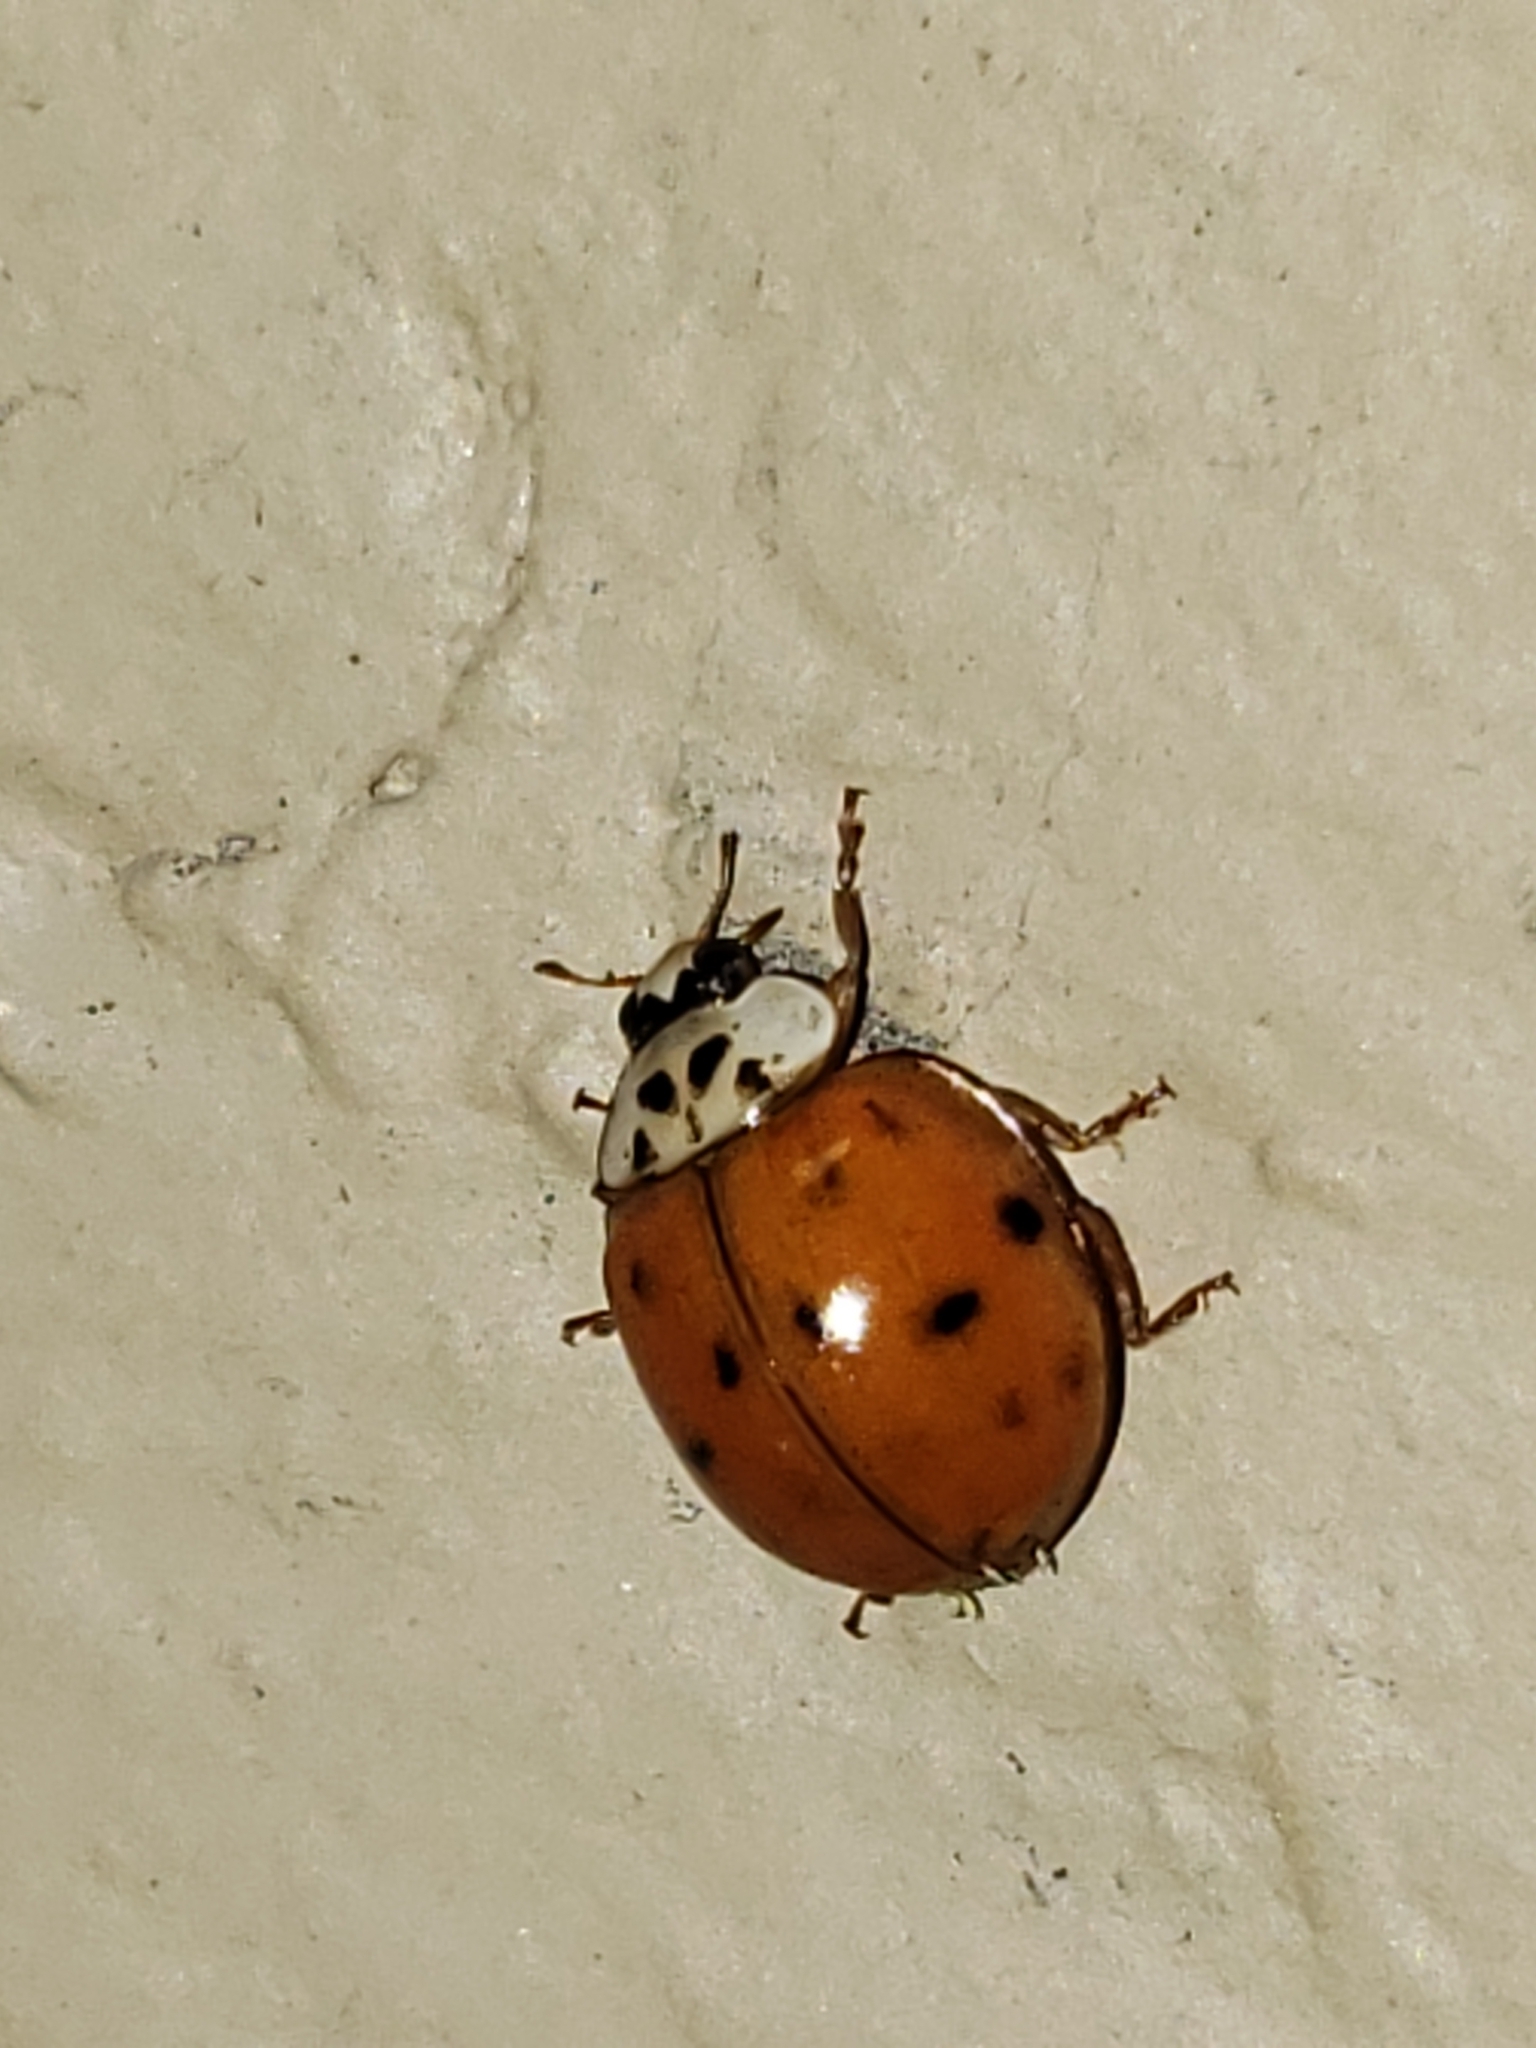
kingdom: Animalia
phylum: Arthropoda
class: Insecta
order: Coleoptera
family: Coccinellidae
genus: Harmonia
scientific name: Harmonia axyridis
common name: Harlequin ladybird
